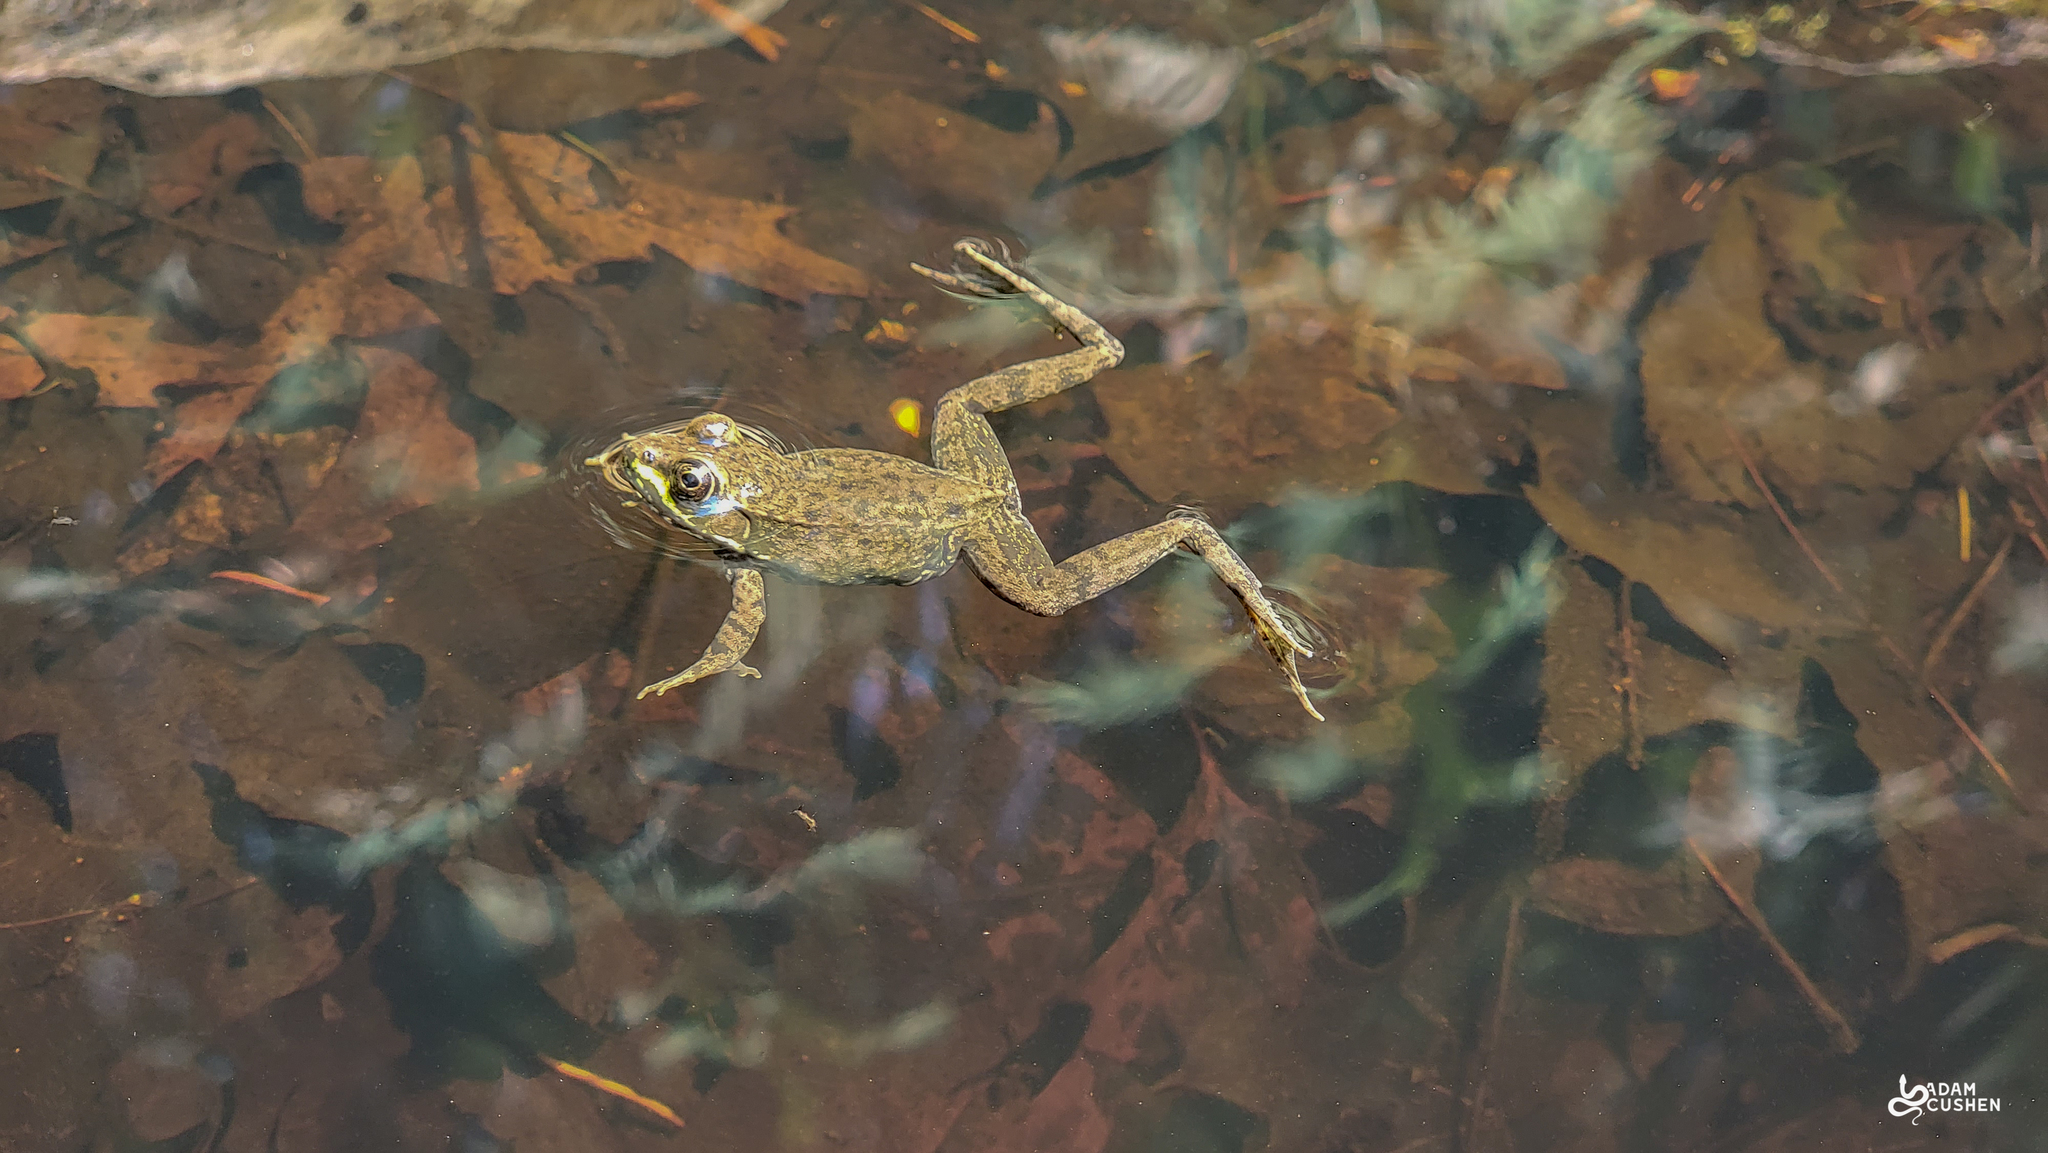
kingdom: Animalia
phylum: Chordata
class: Amphibia
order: Anura
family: Ranidae
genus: Lithobates
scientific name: Lithobates clamitans
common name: Green frog
